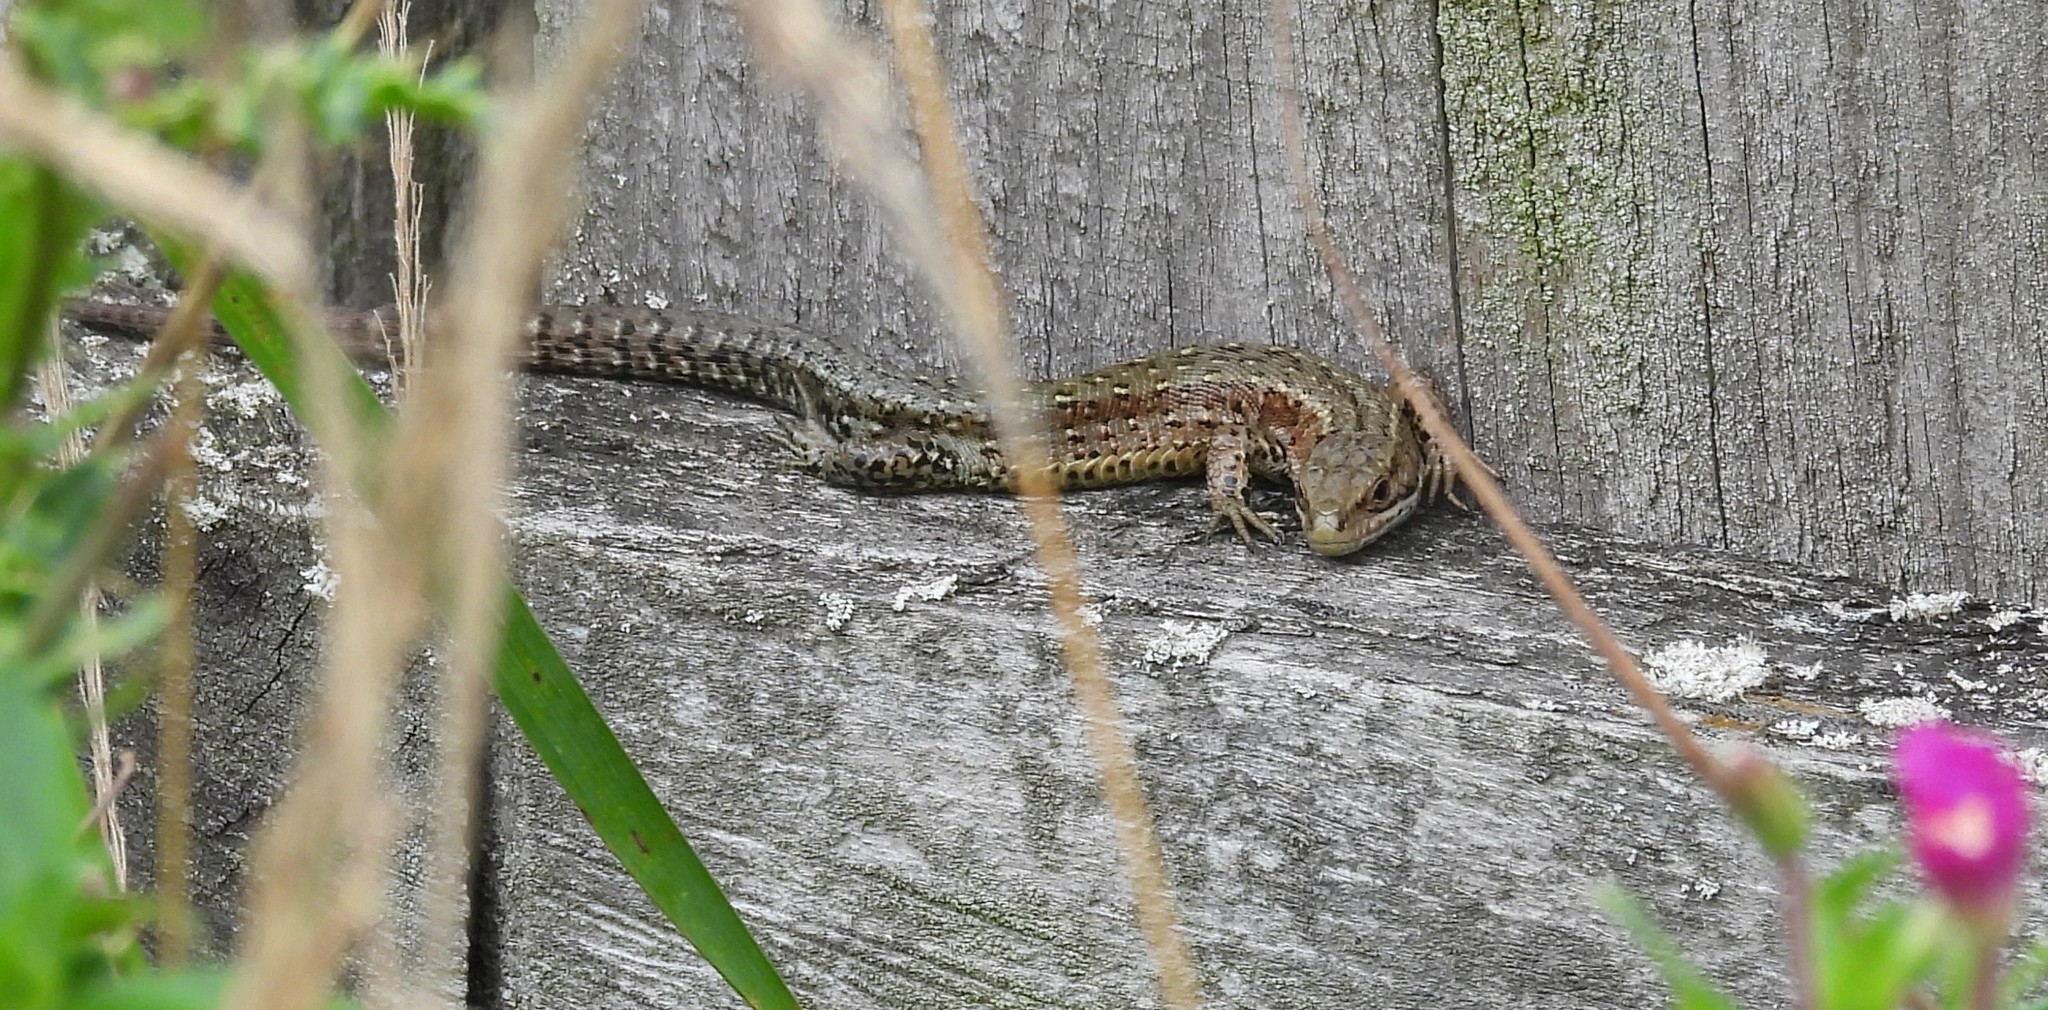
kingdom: Animalia
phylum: Chordata
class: Squamata
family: Lacertidae
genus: Zootoca
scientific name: Zootoca vivipara
